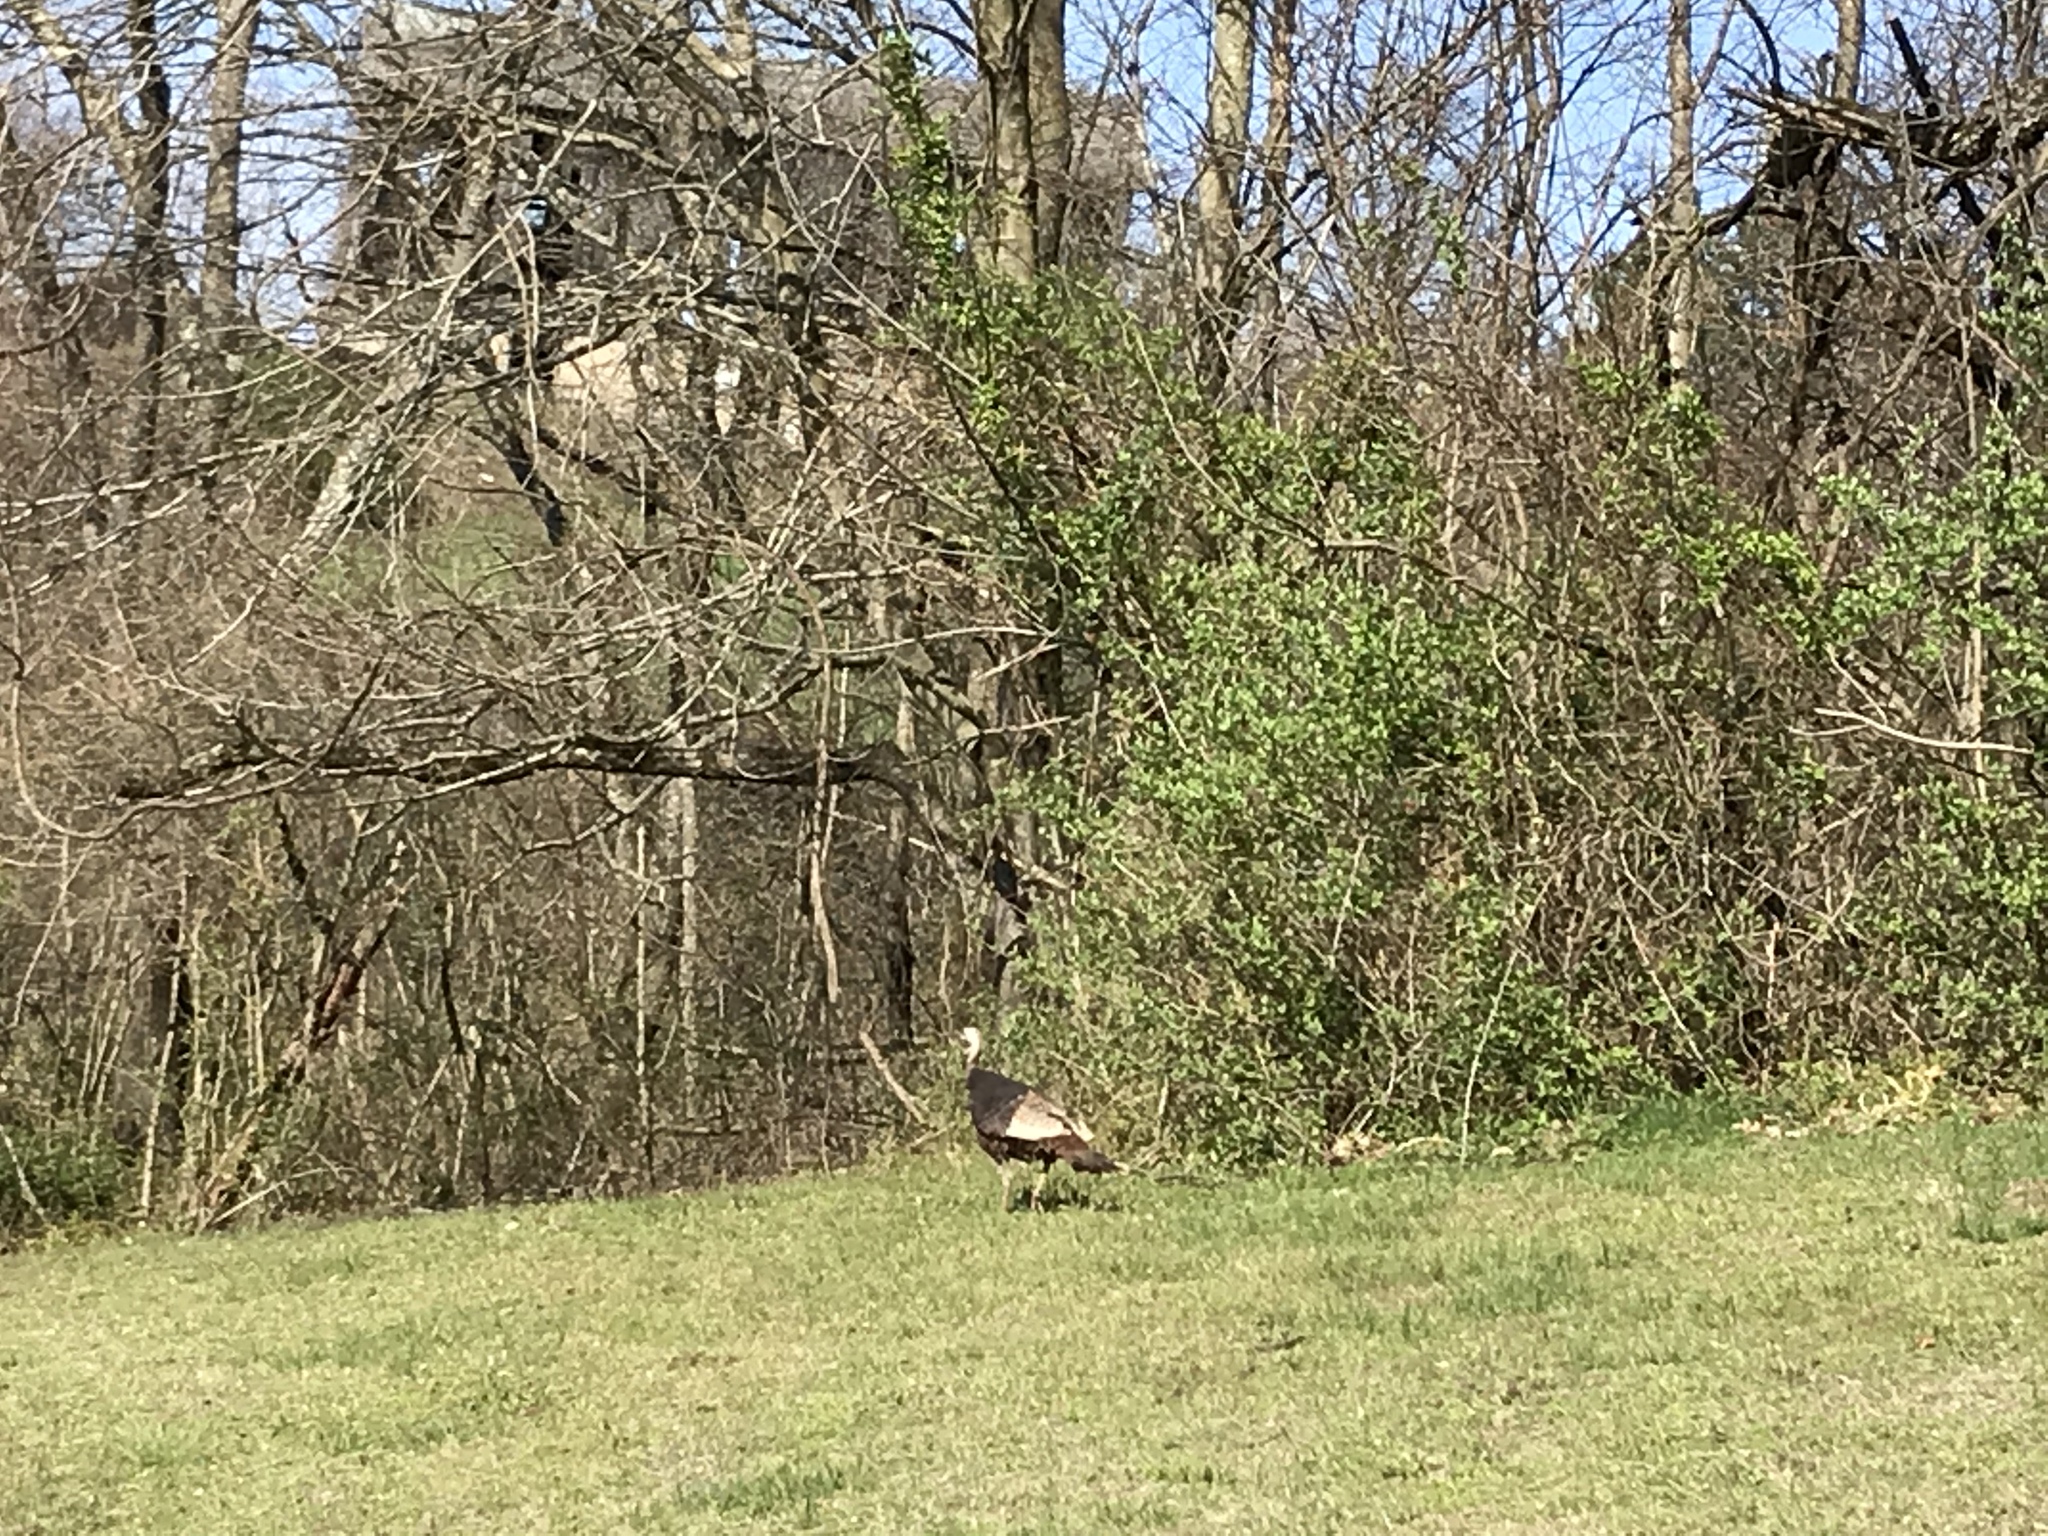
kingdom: Animalia
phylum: Chordata
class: Aves
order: Galliformes
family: Phasianidae
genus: Meleagris
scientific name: Meleagris gallopavo
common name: Wild turkey
